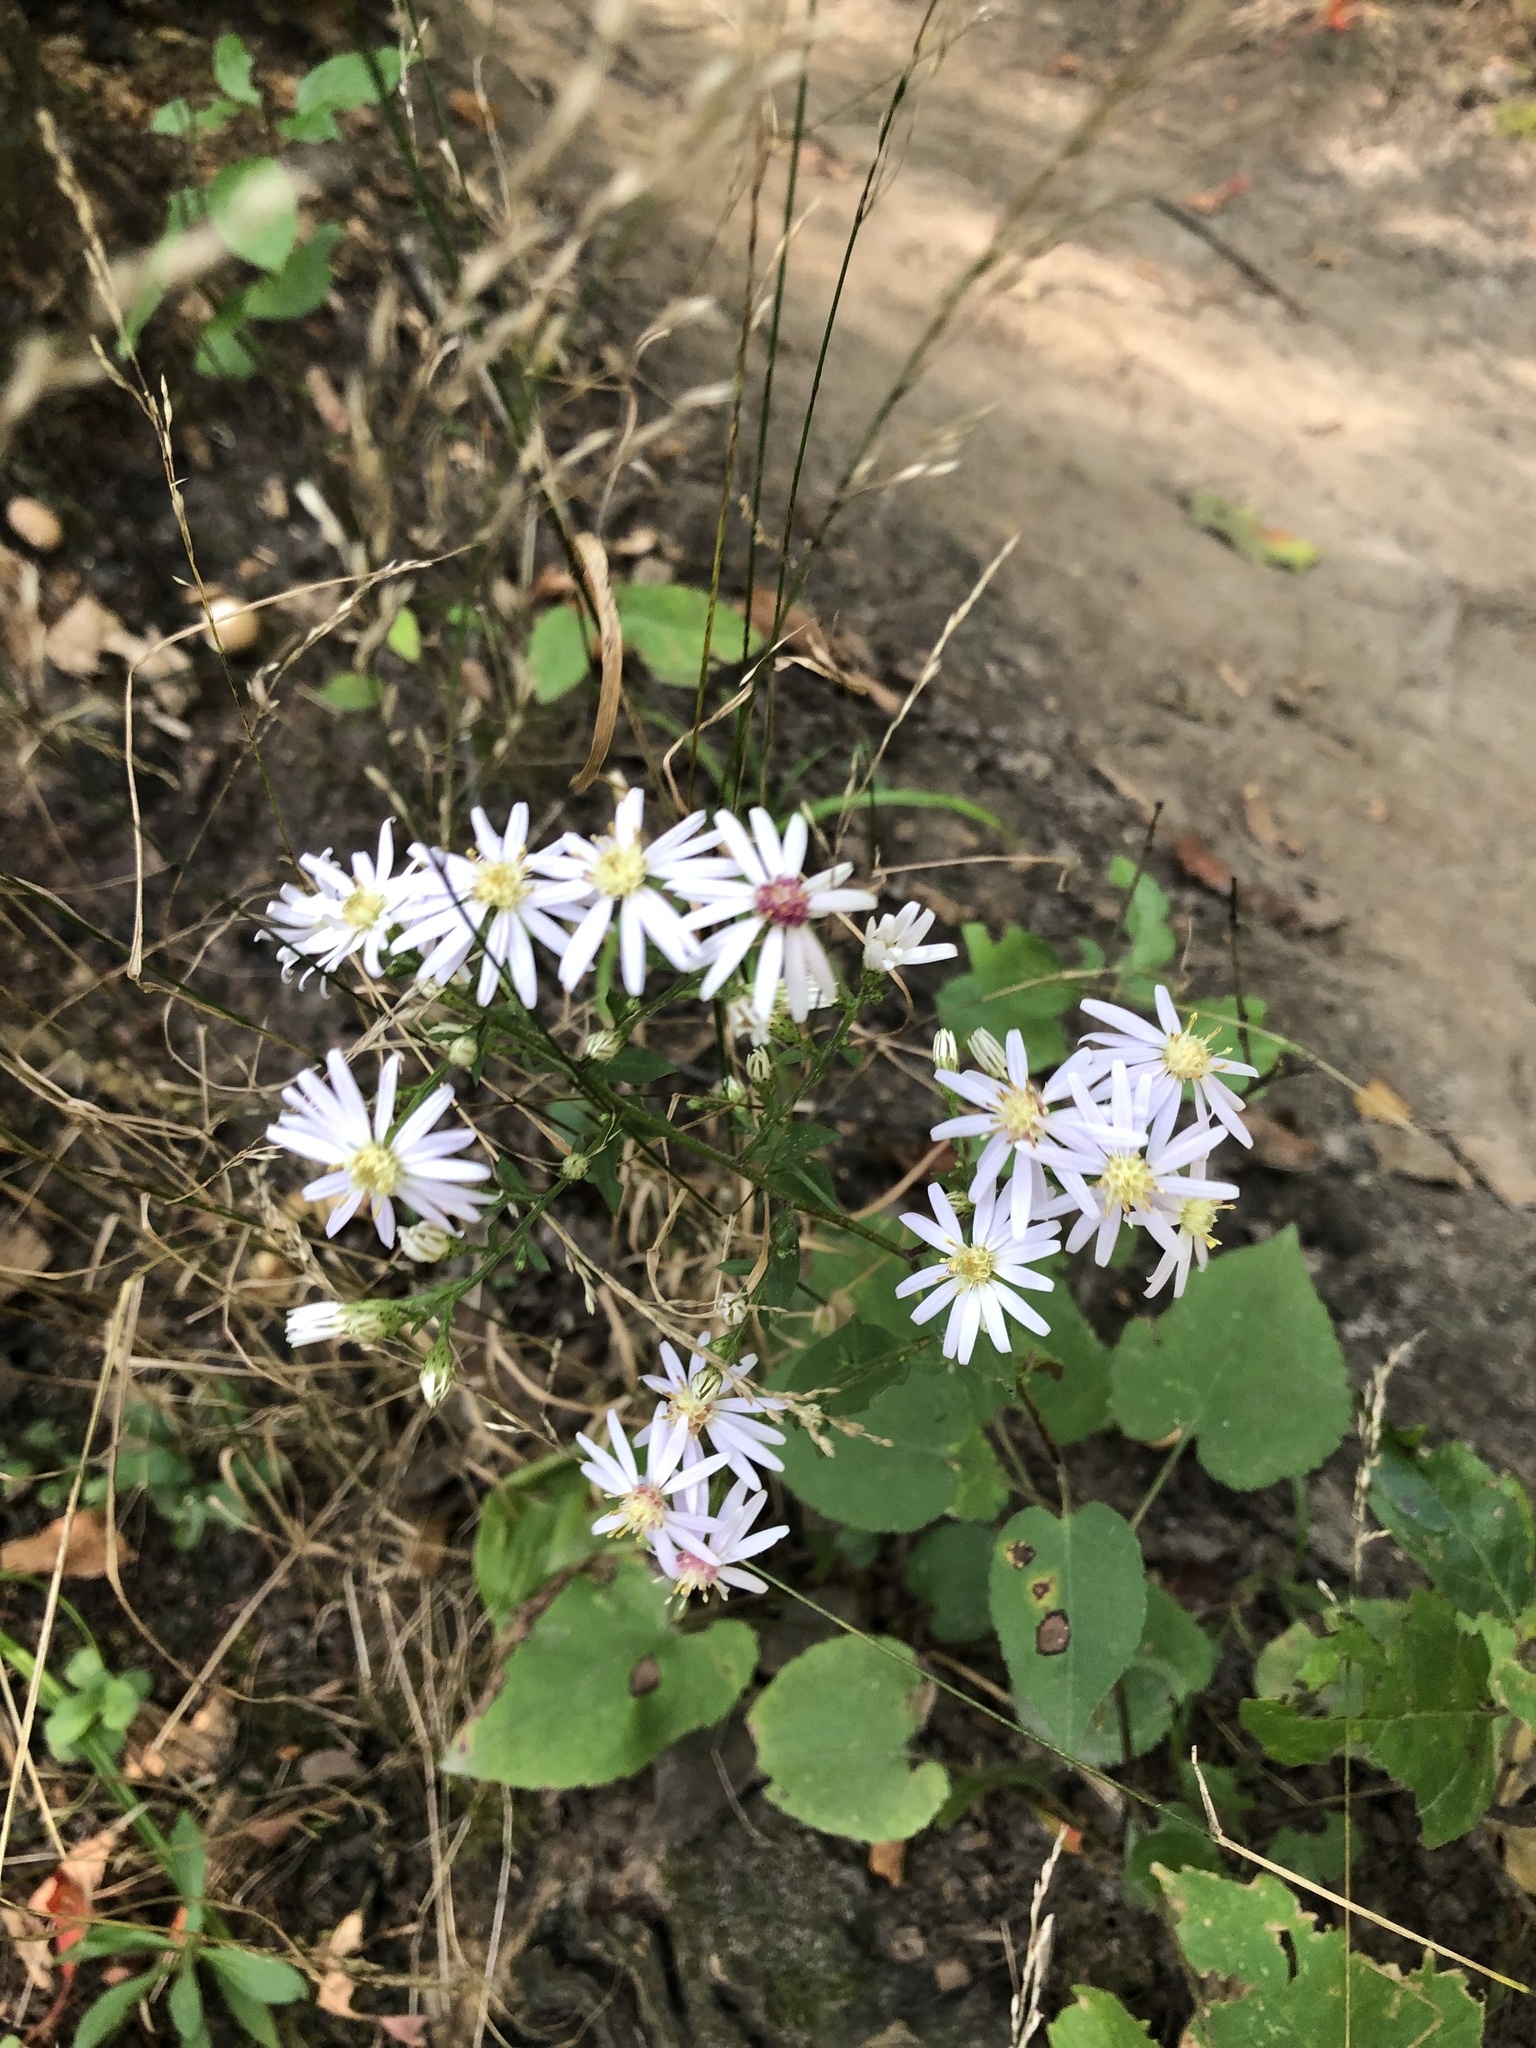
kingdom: Plantae
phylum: Tracheophyta
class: Magnoliopsida
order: Asterales
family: Asteraceae
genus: Symphyotrichum
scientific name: Symphyotrichum cordifolium
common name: Beeweed
